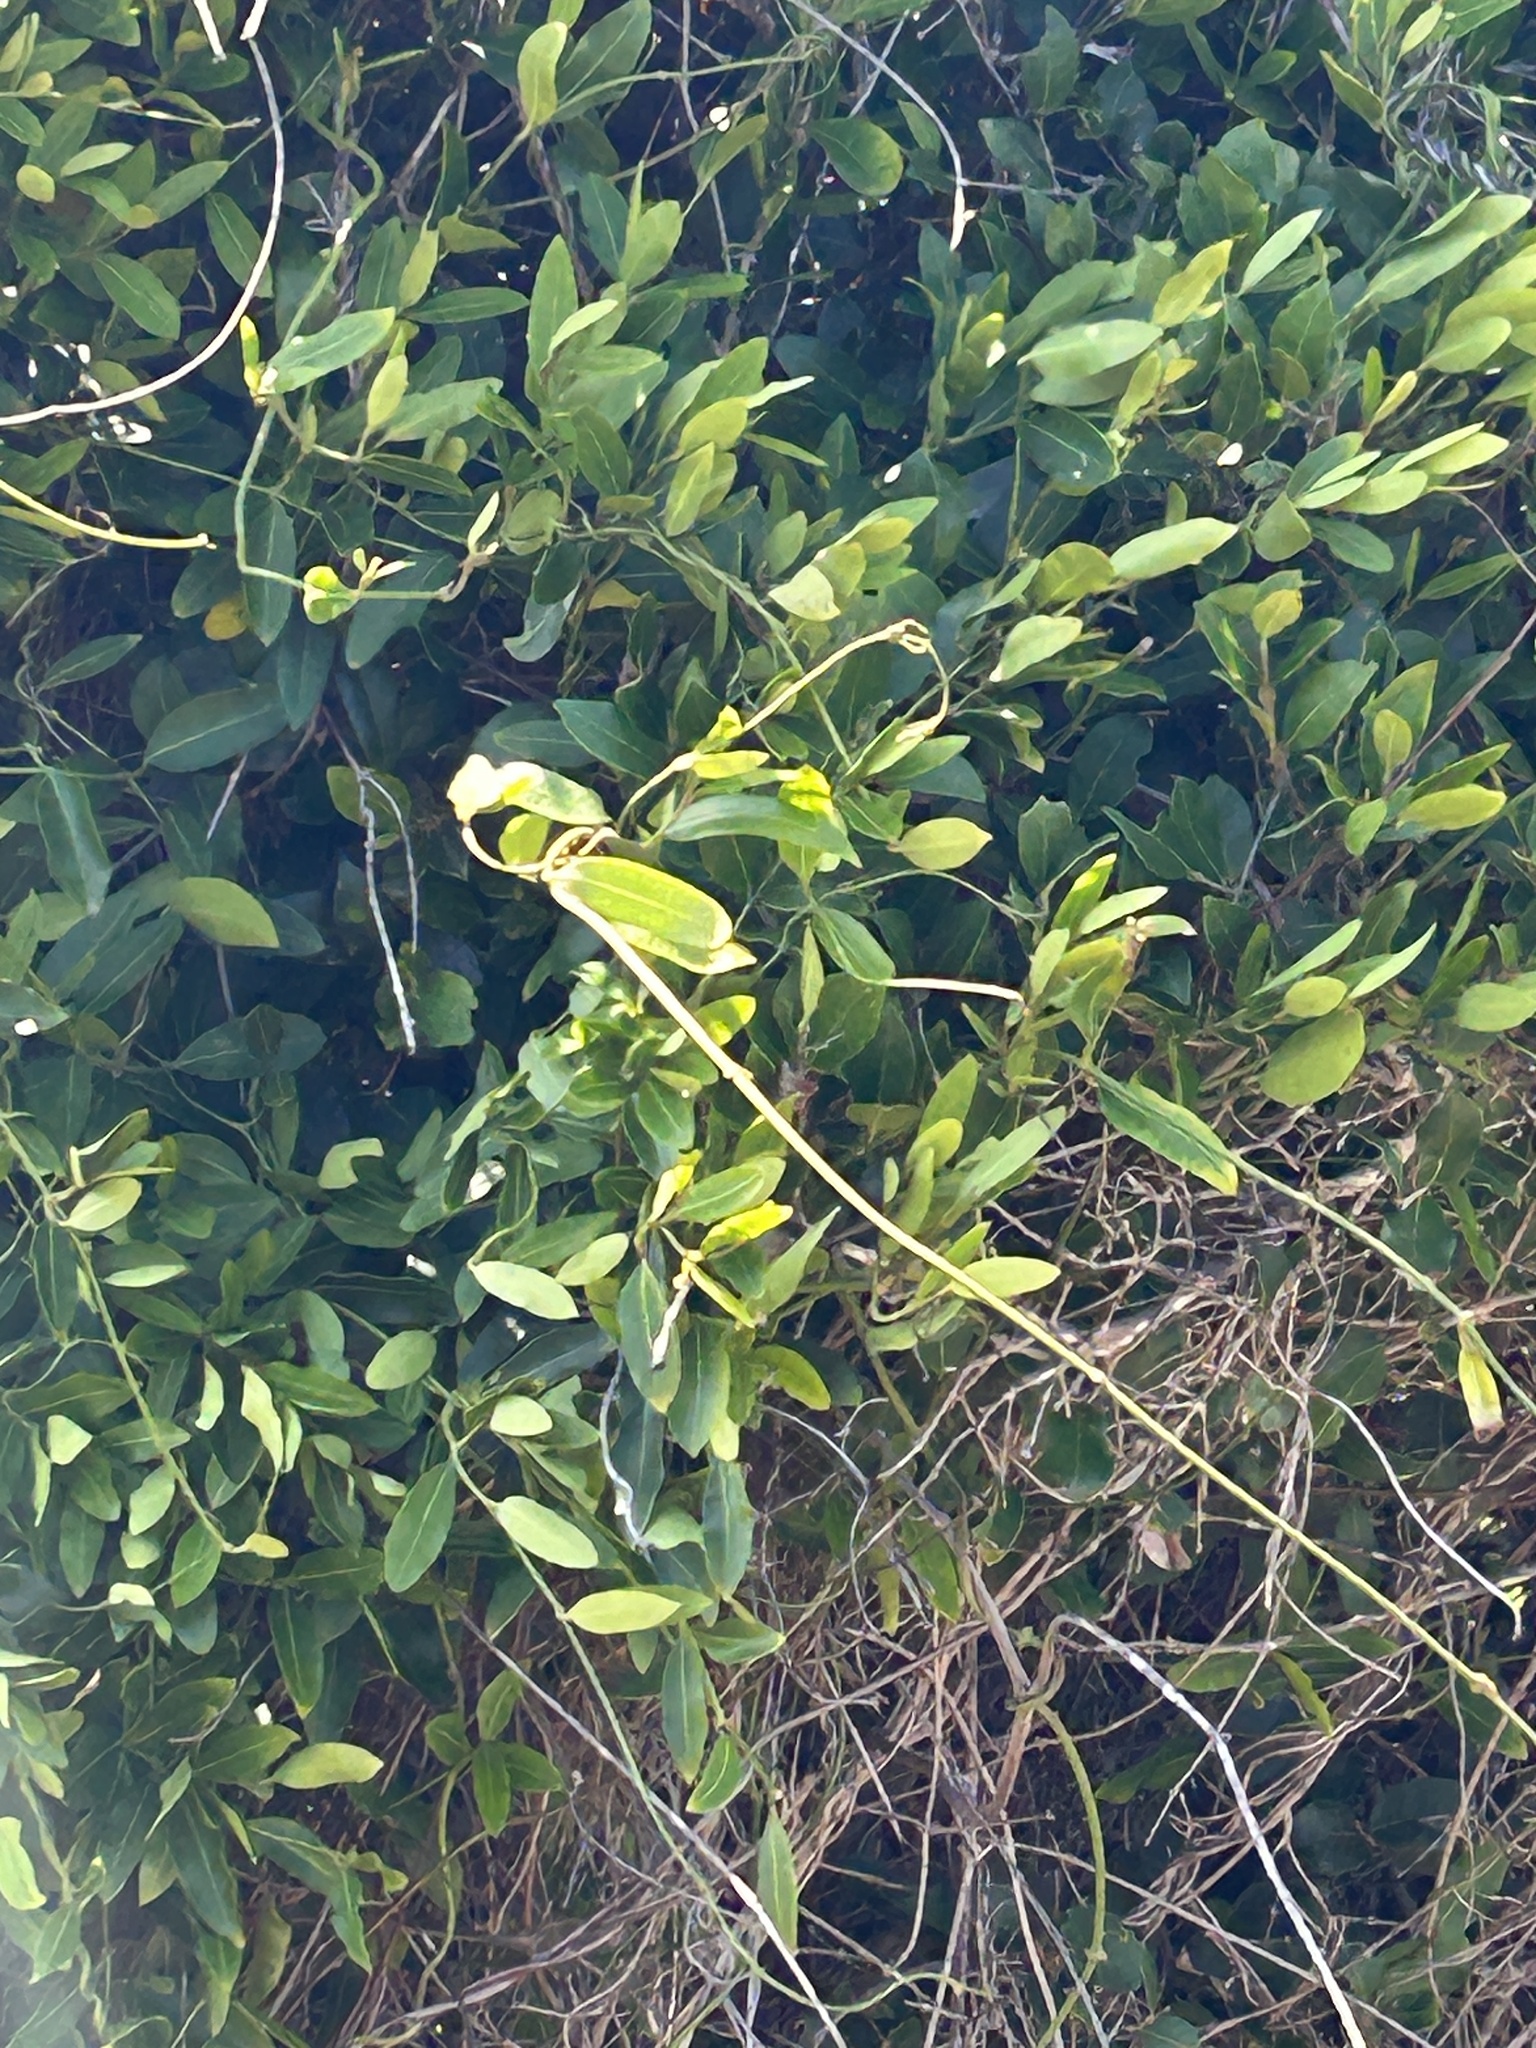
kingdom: Plantae
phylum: Tracheophyta
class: Magnoliopsida
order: Gentianales
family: Apocynaceae
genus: Secamone
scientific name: Secamone alpini
